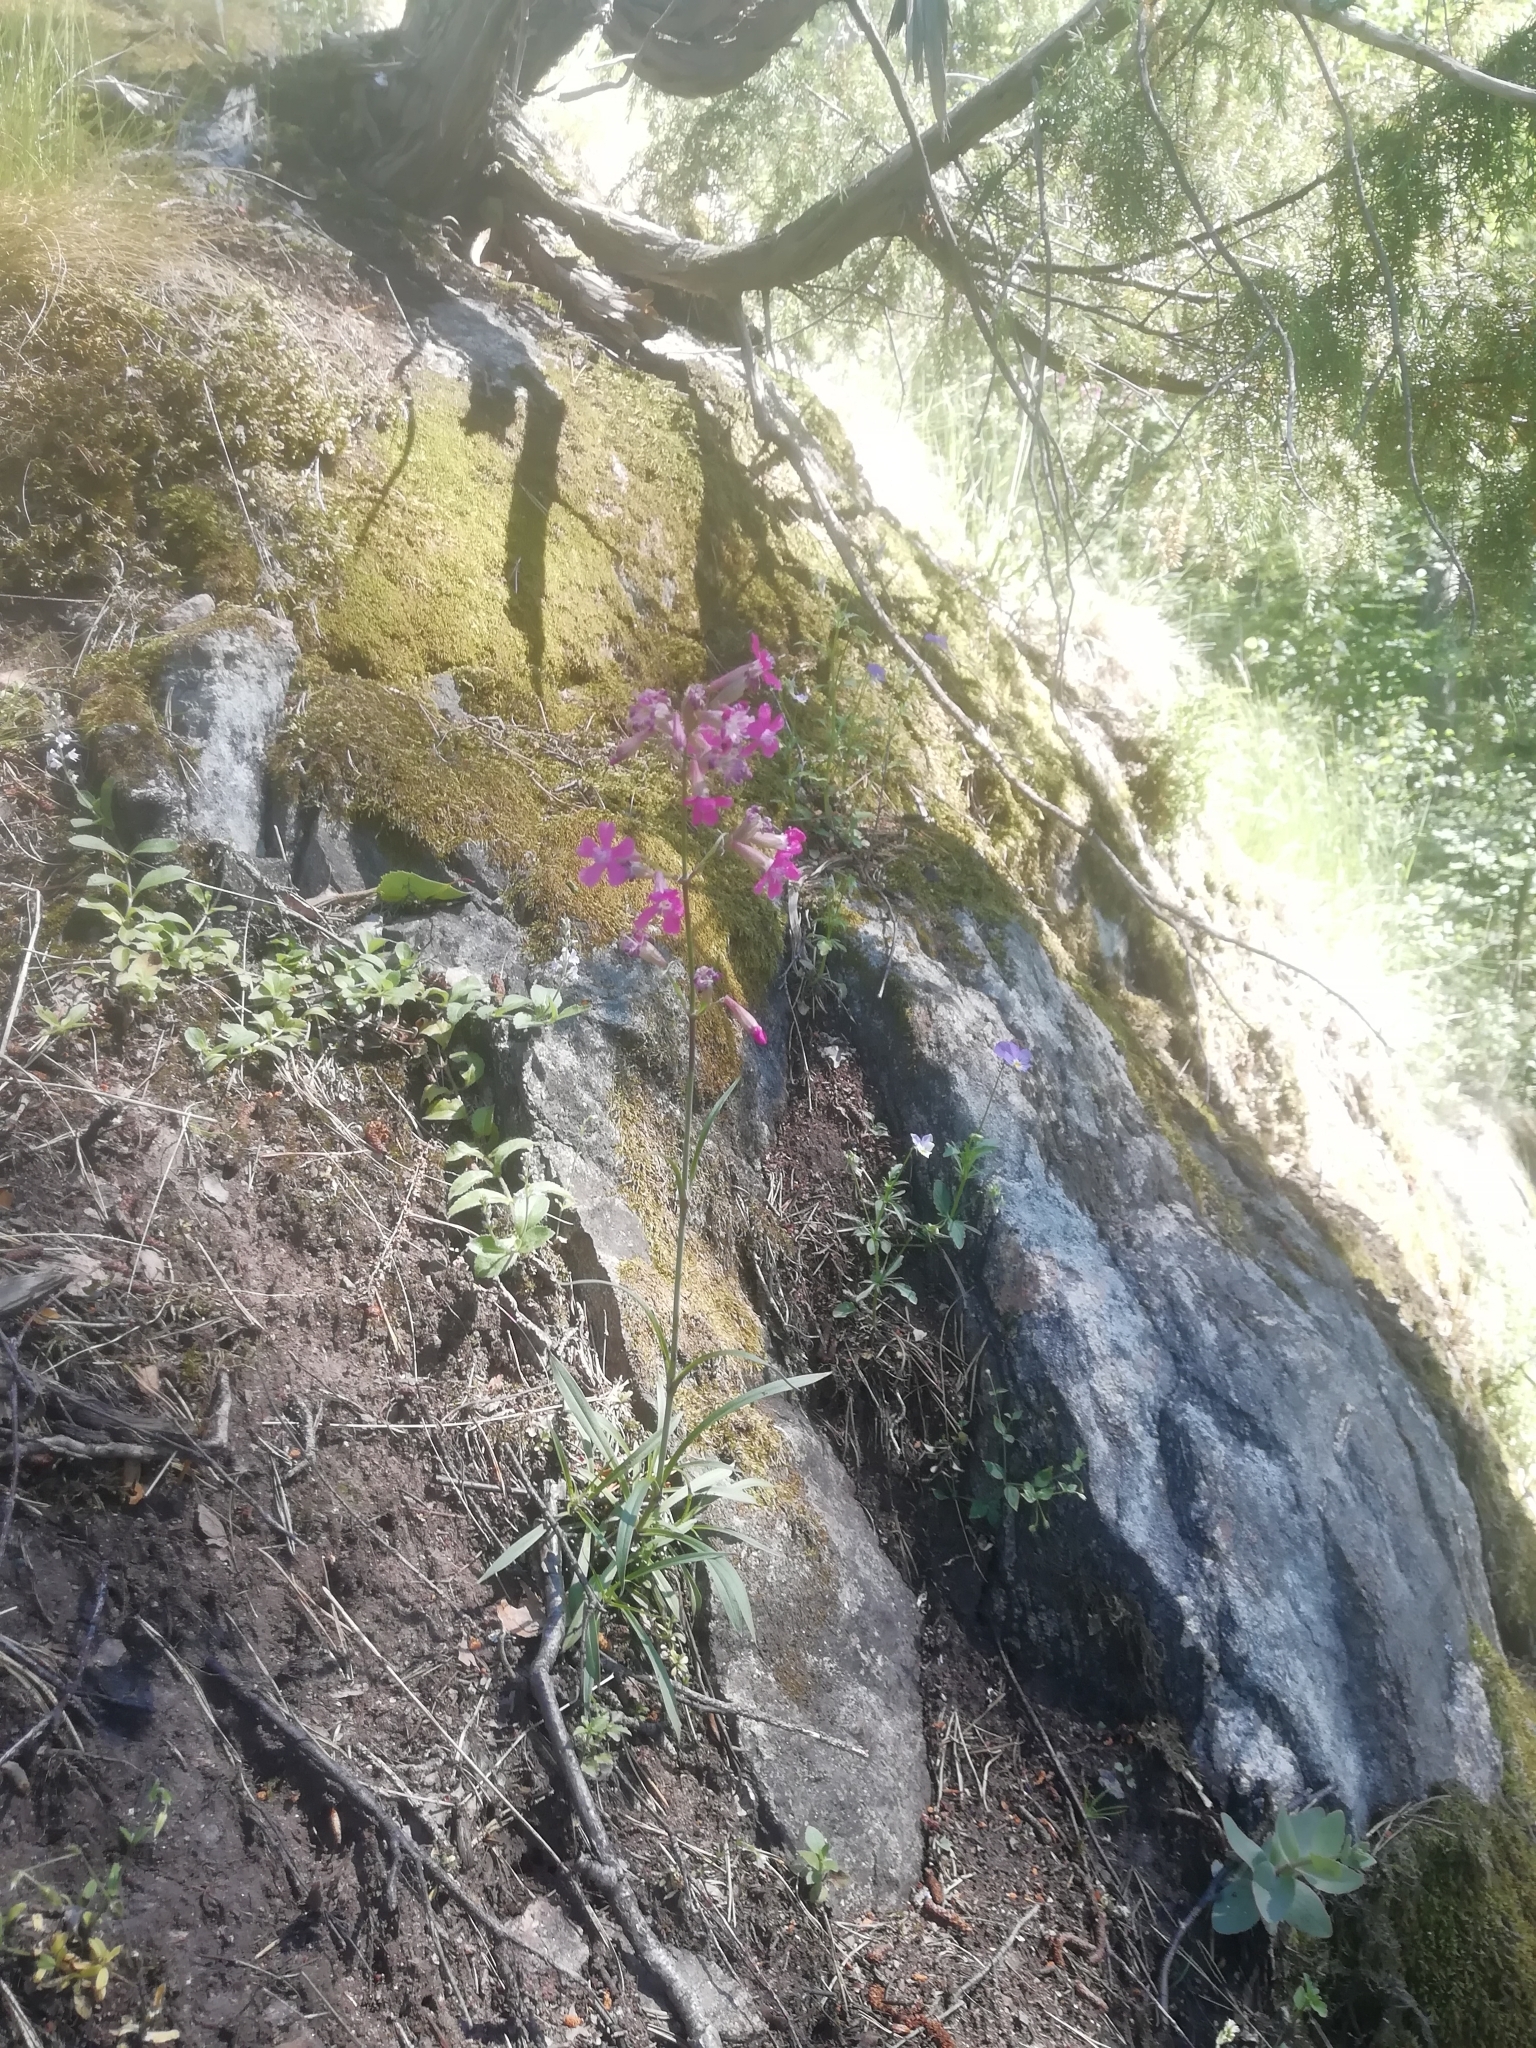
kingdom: Plantae
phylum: Tracheophyta
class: Magnoliopsida
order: Caryophyllales
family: Caryophyllaceae
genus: Viscaria
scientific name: Viscaria vulgaris
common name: Clammy campion
